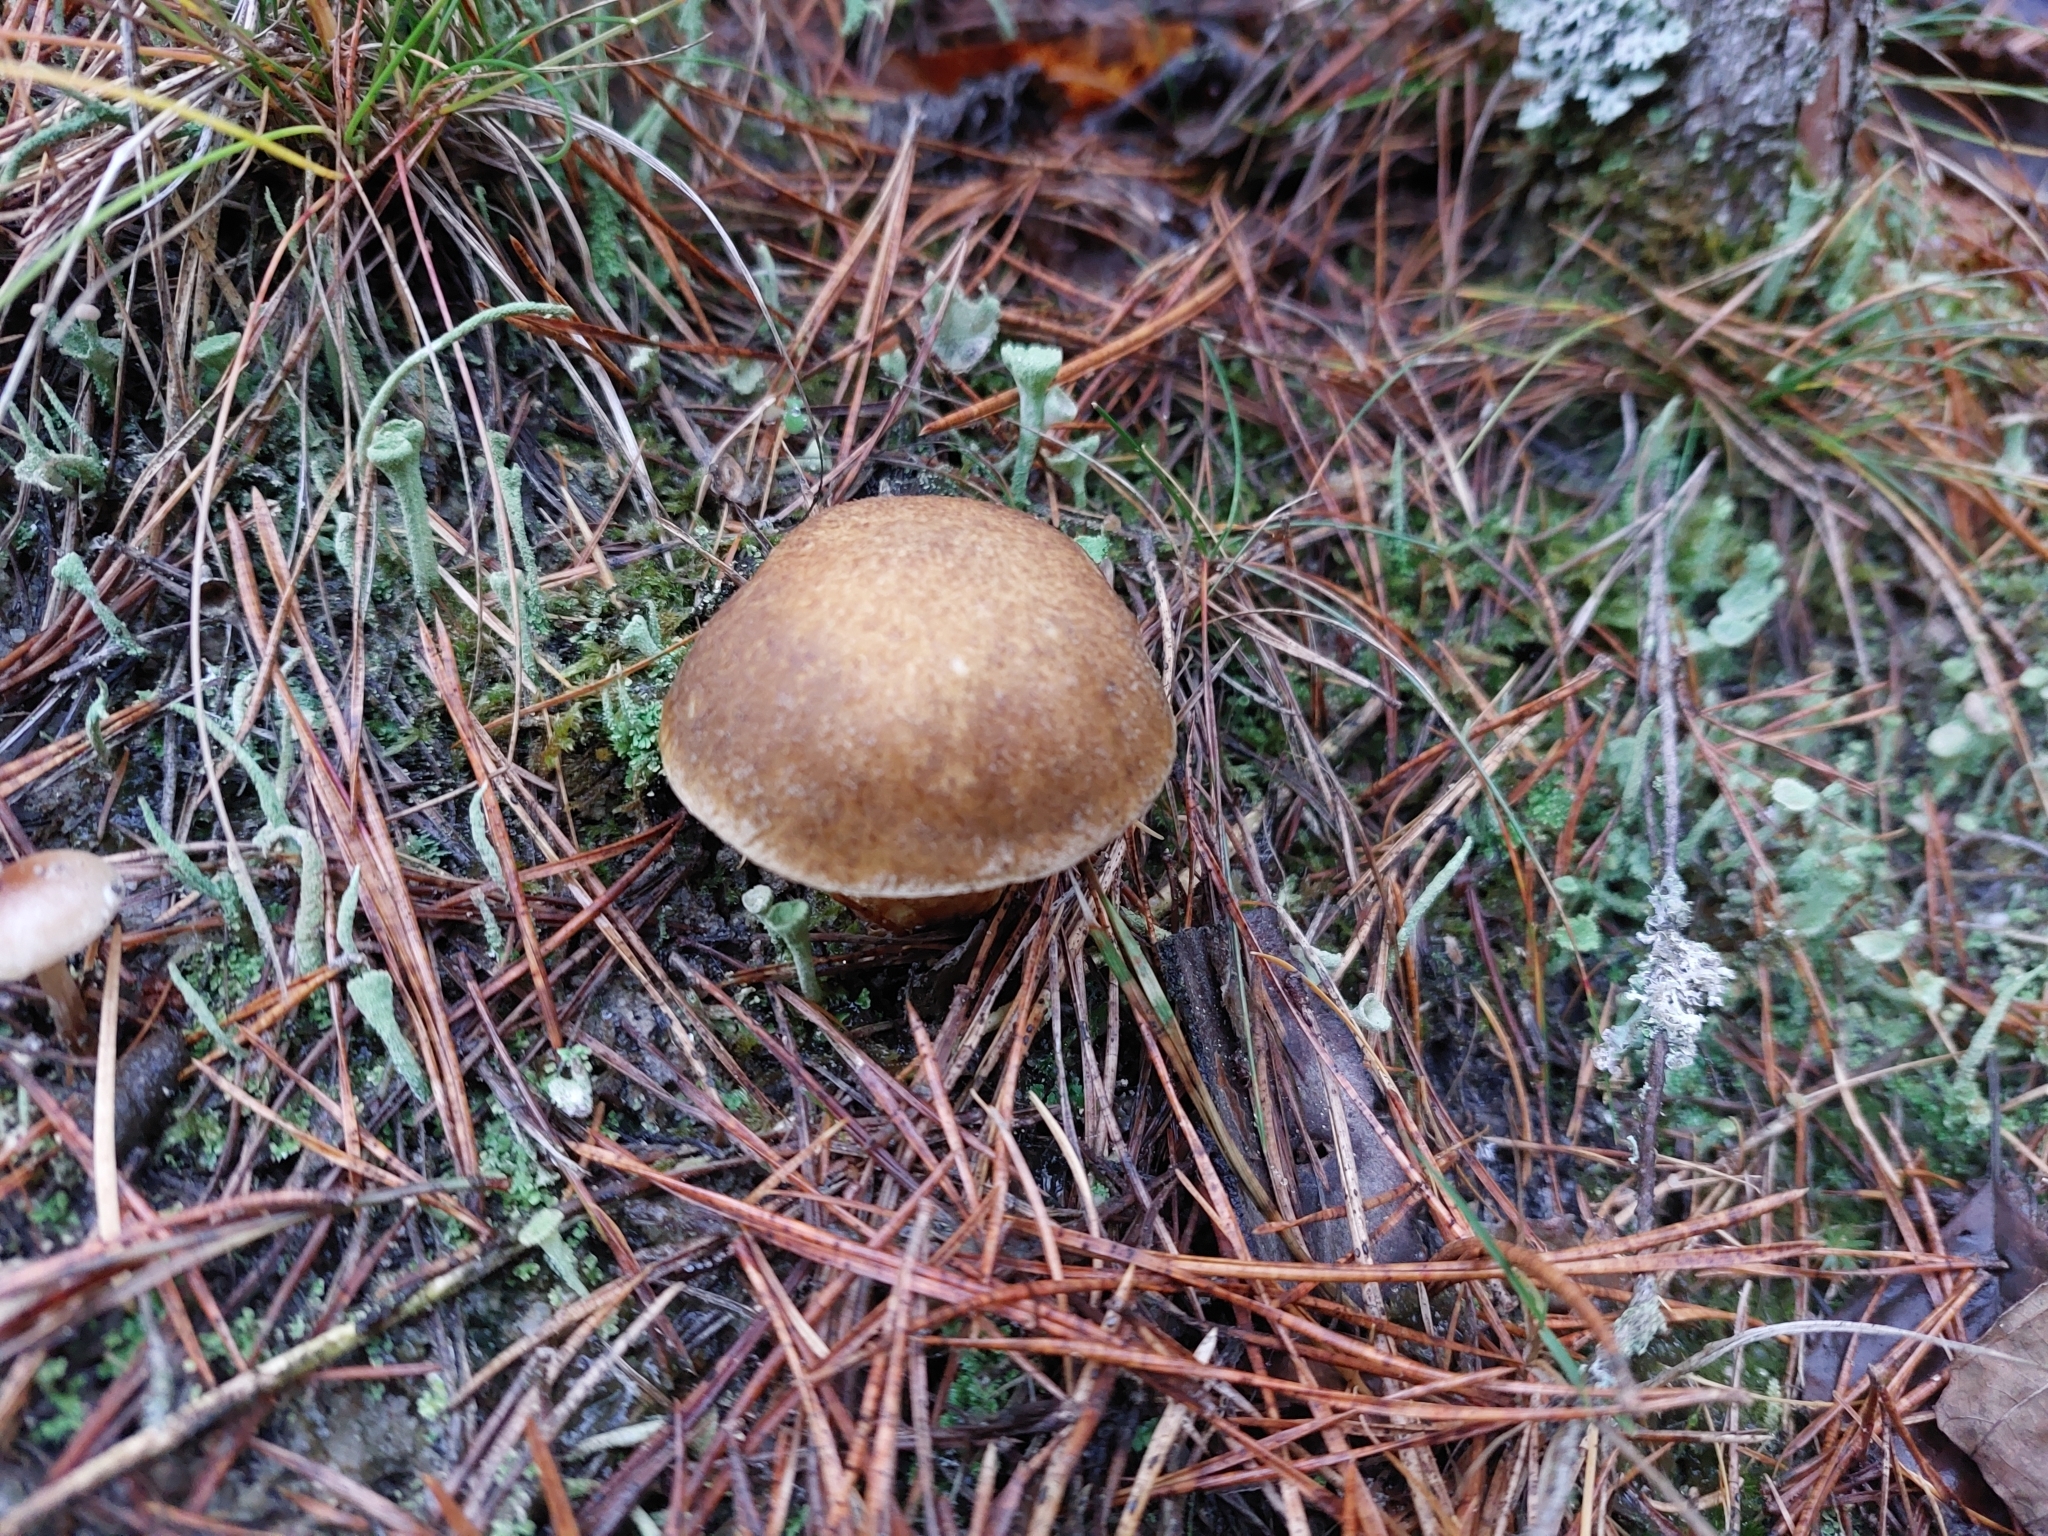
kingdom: Fungi
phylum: Basidiomycota
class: Agaricomycetes
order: Boletales
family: Suillaceae
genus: Suillus
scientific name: Suillus variegatus
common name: Velvet bolete
